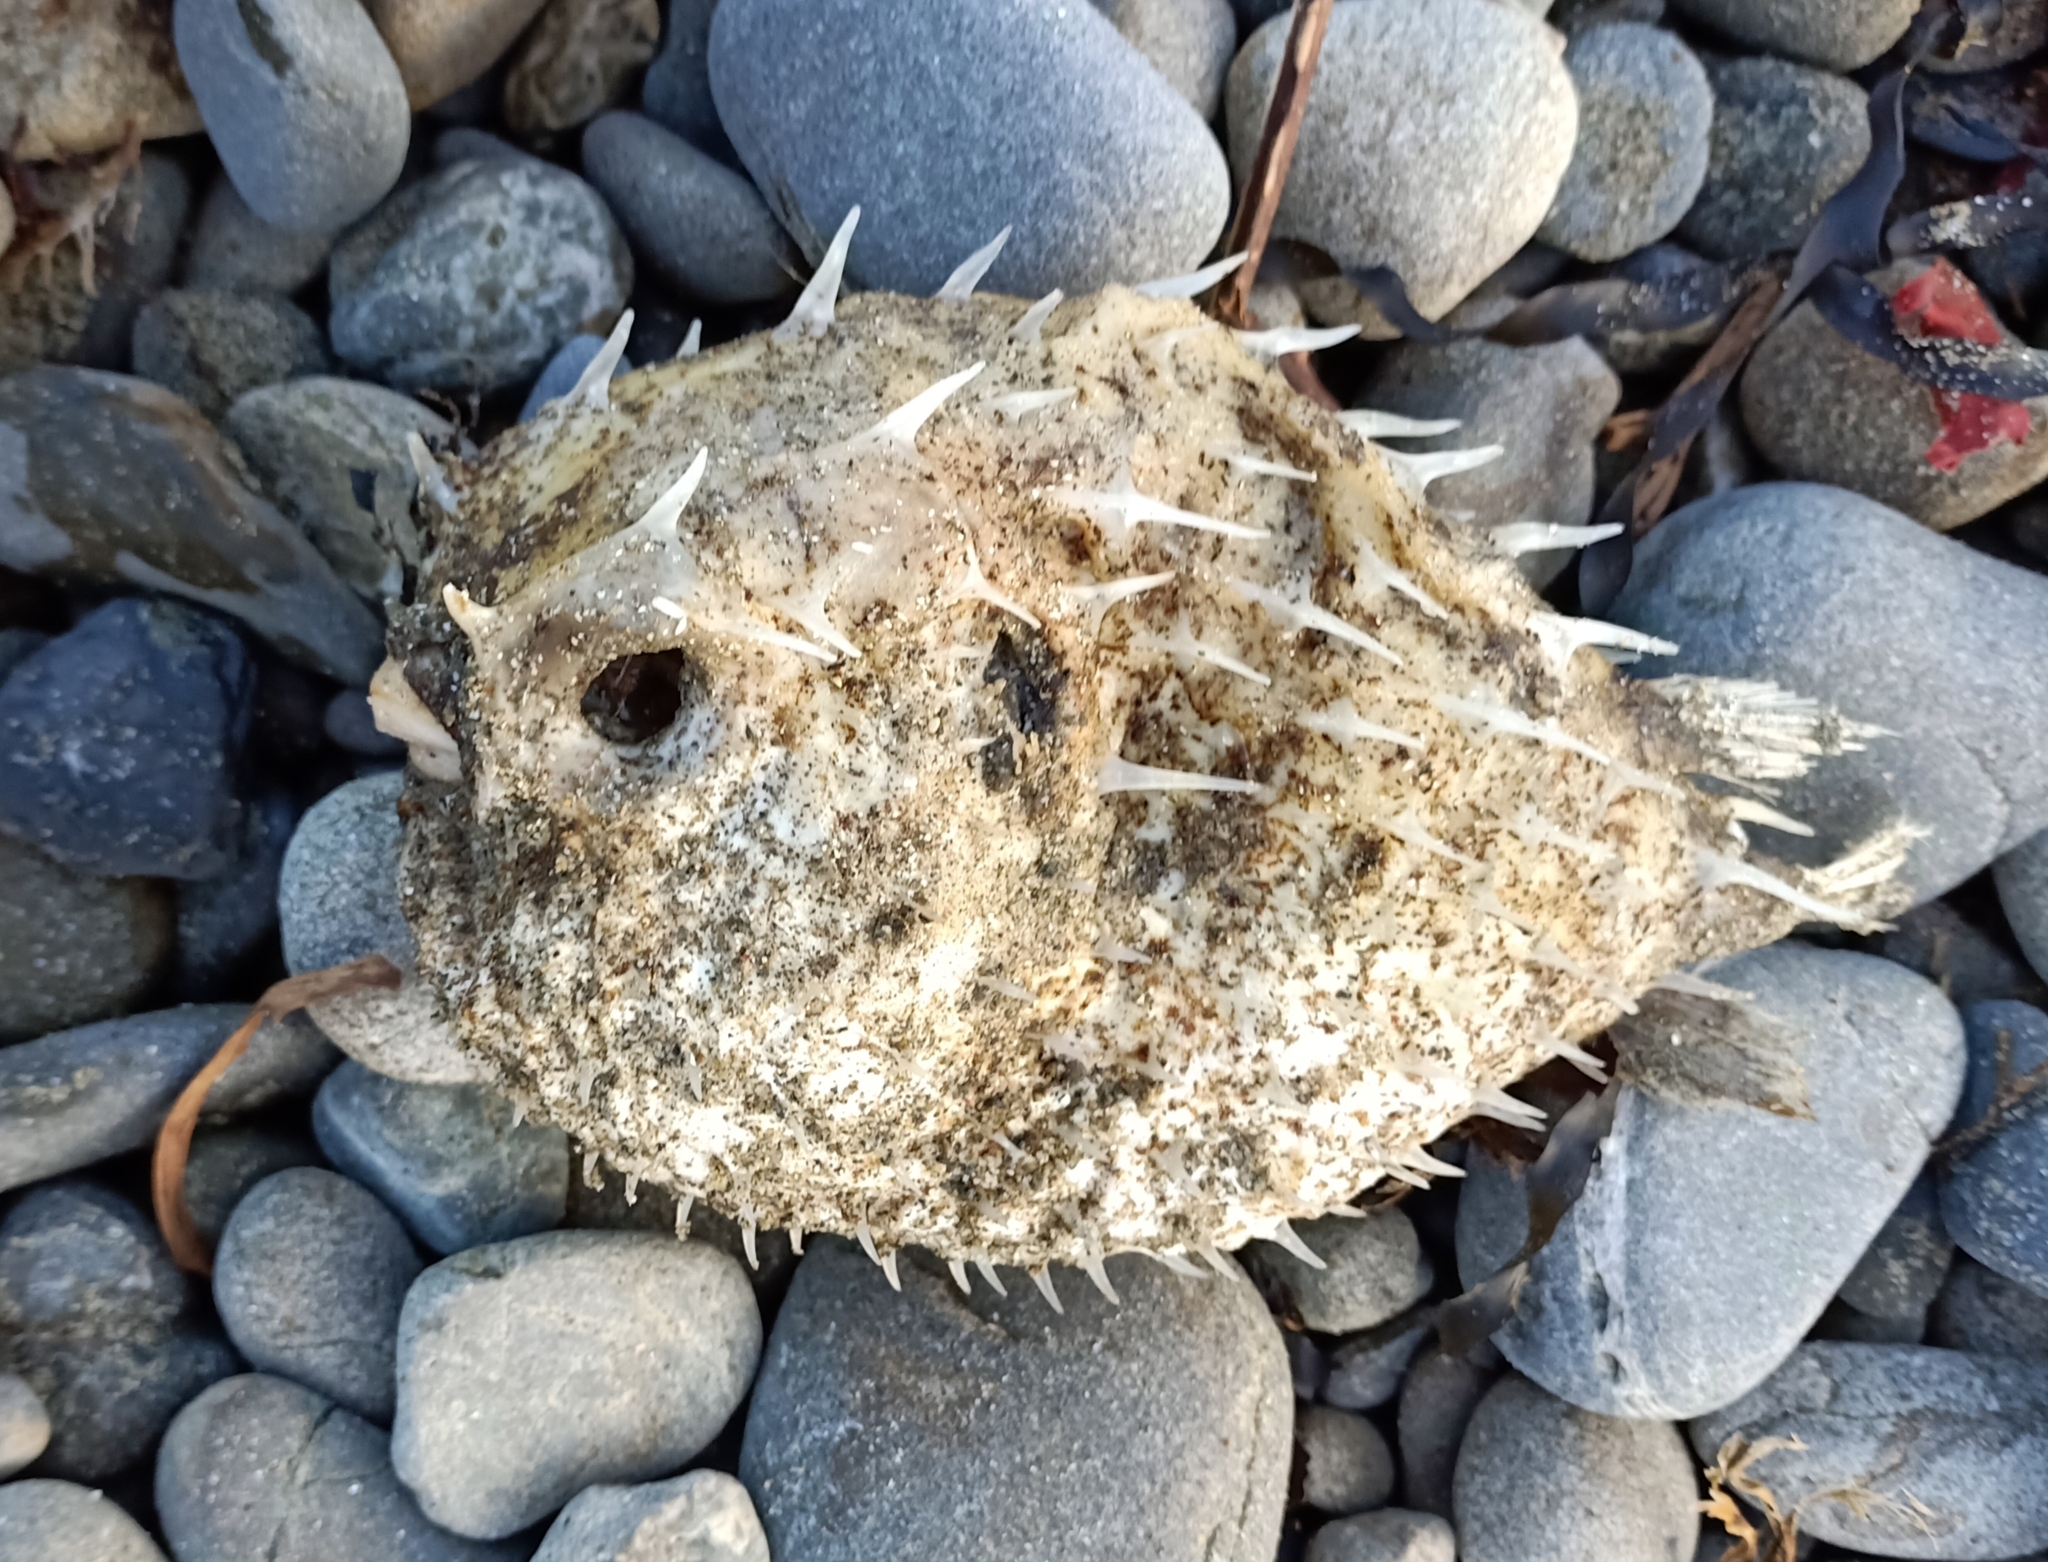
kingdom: Animalia
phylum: Chordata
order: Tetraodontiformes
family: Diodontidae
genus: Allomycterus
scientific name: Allomycterus pilatus
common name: No common name
